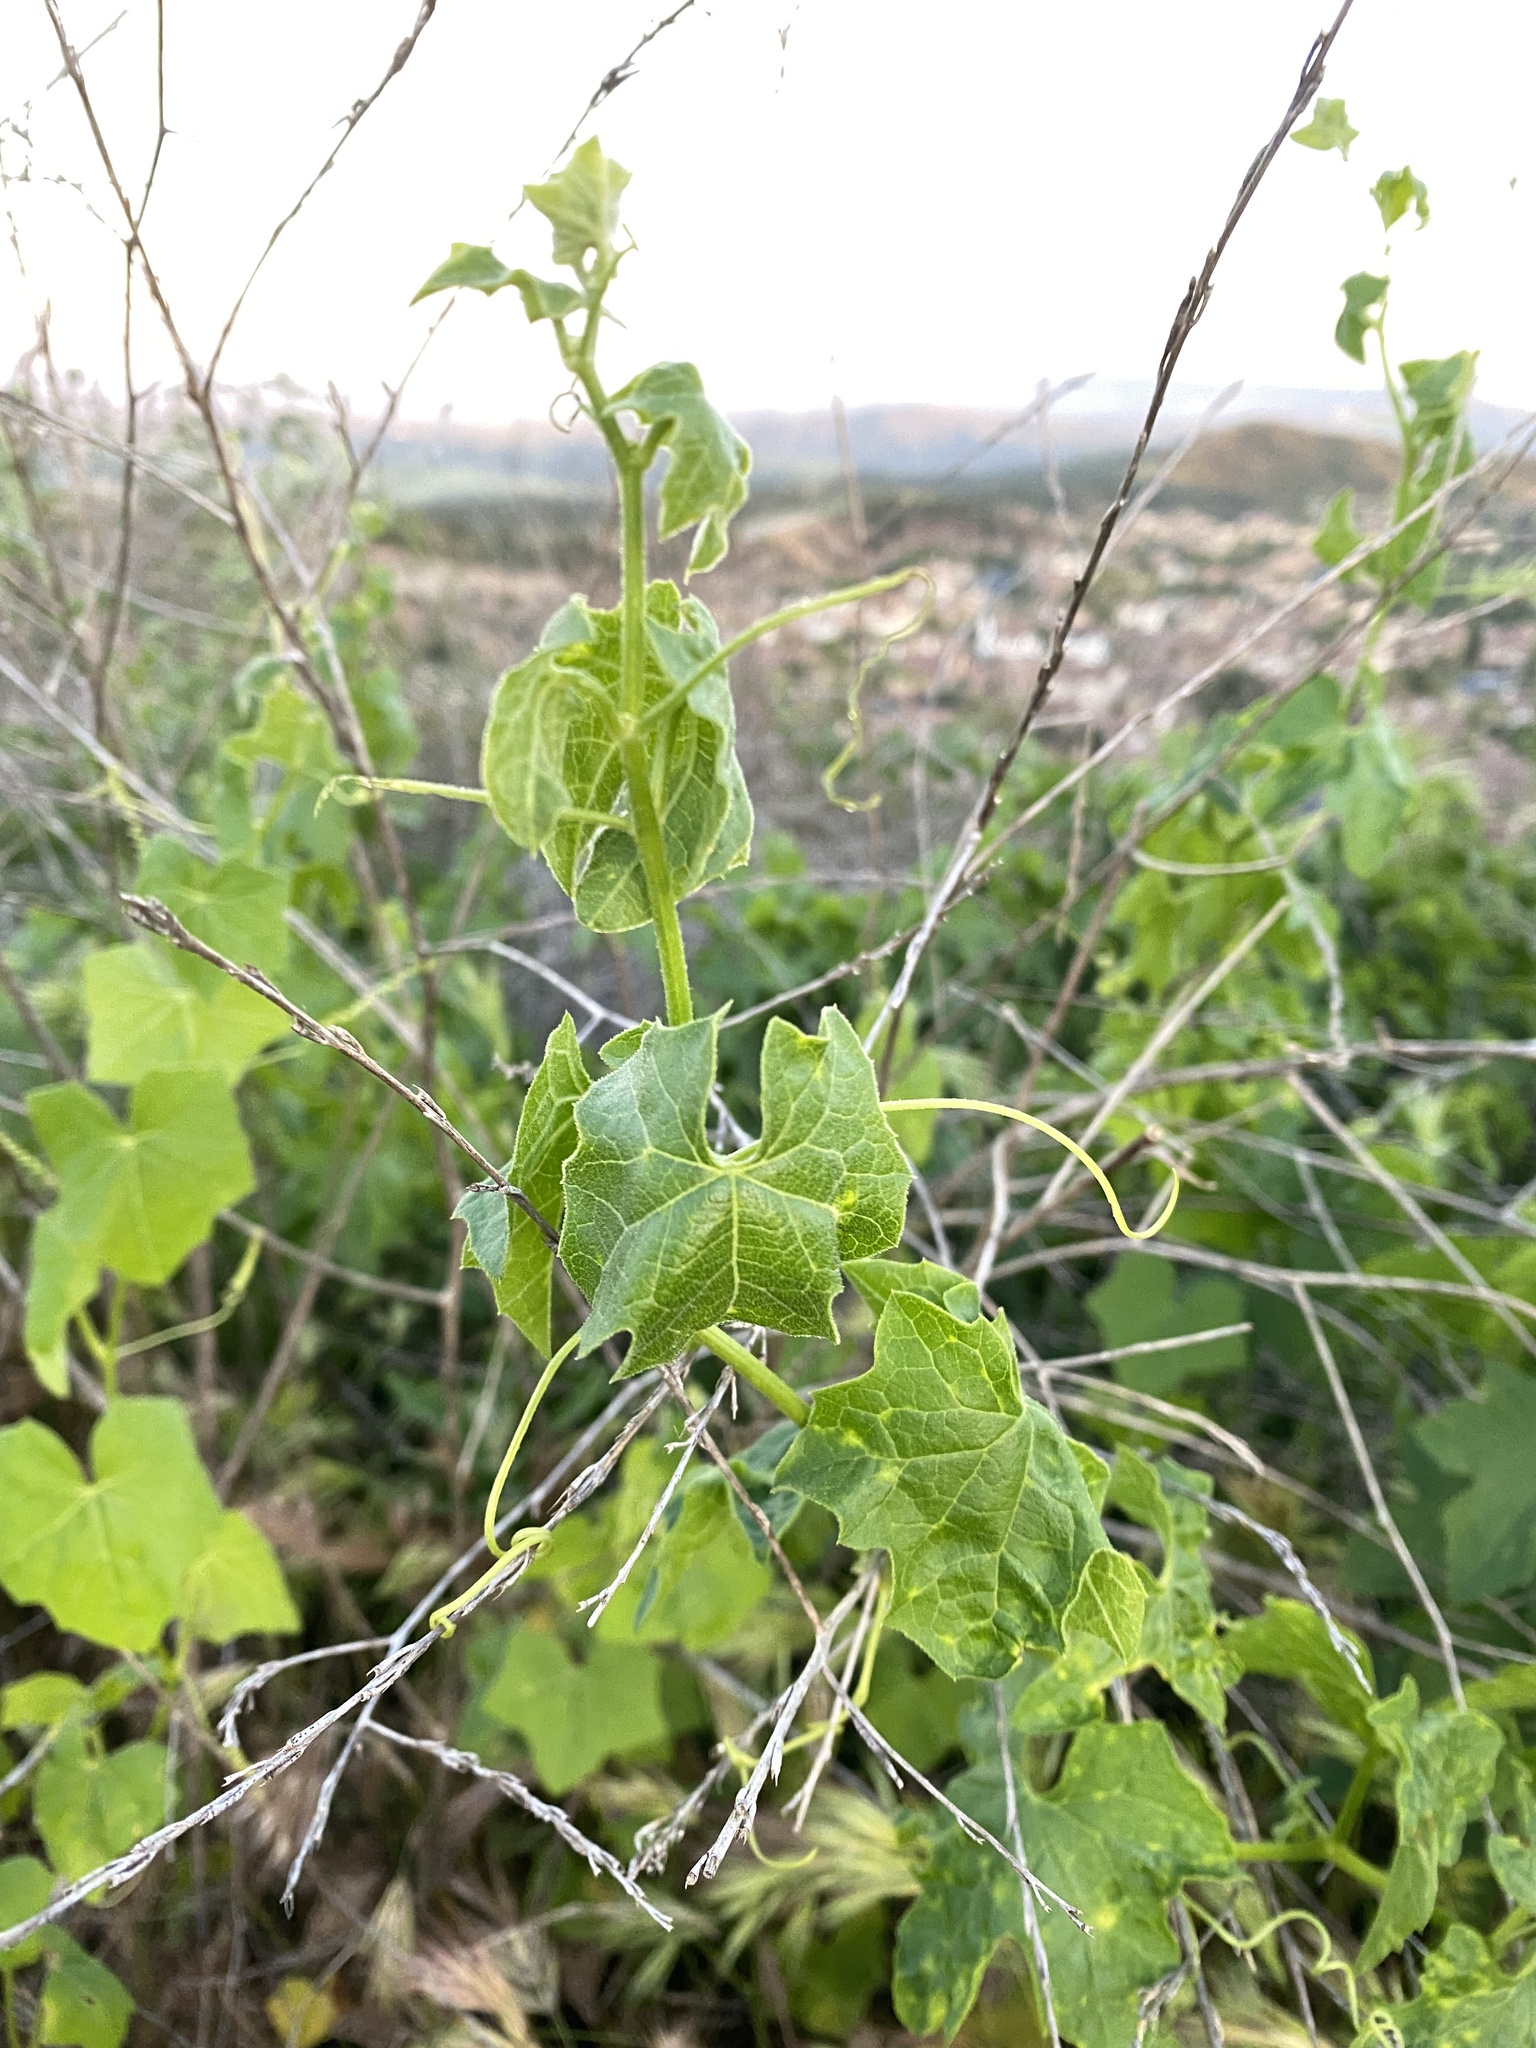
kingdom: Plantae
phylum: Tracheophyta
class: Magnoliopsida
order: Cucurbitales
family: Cucurbitaceae
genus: Marah
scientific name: Marah macrocarpa
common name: Cucamonga manroot
